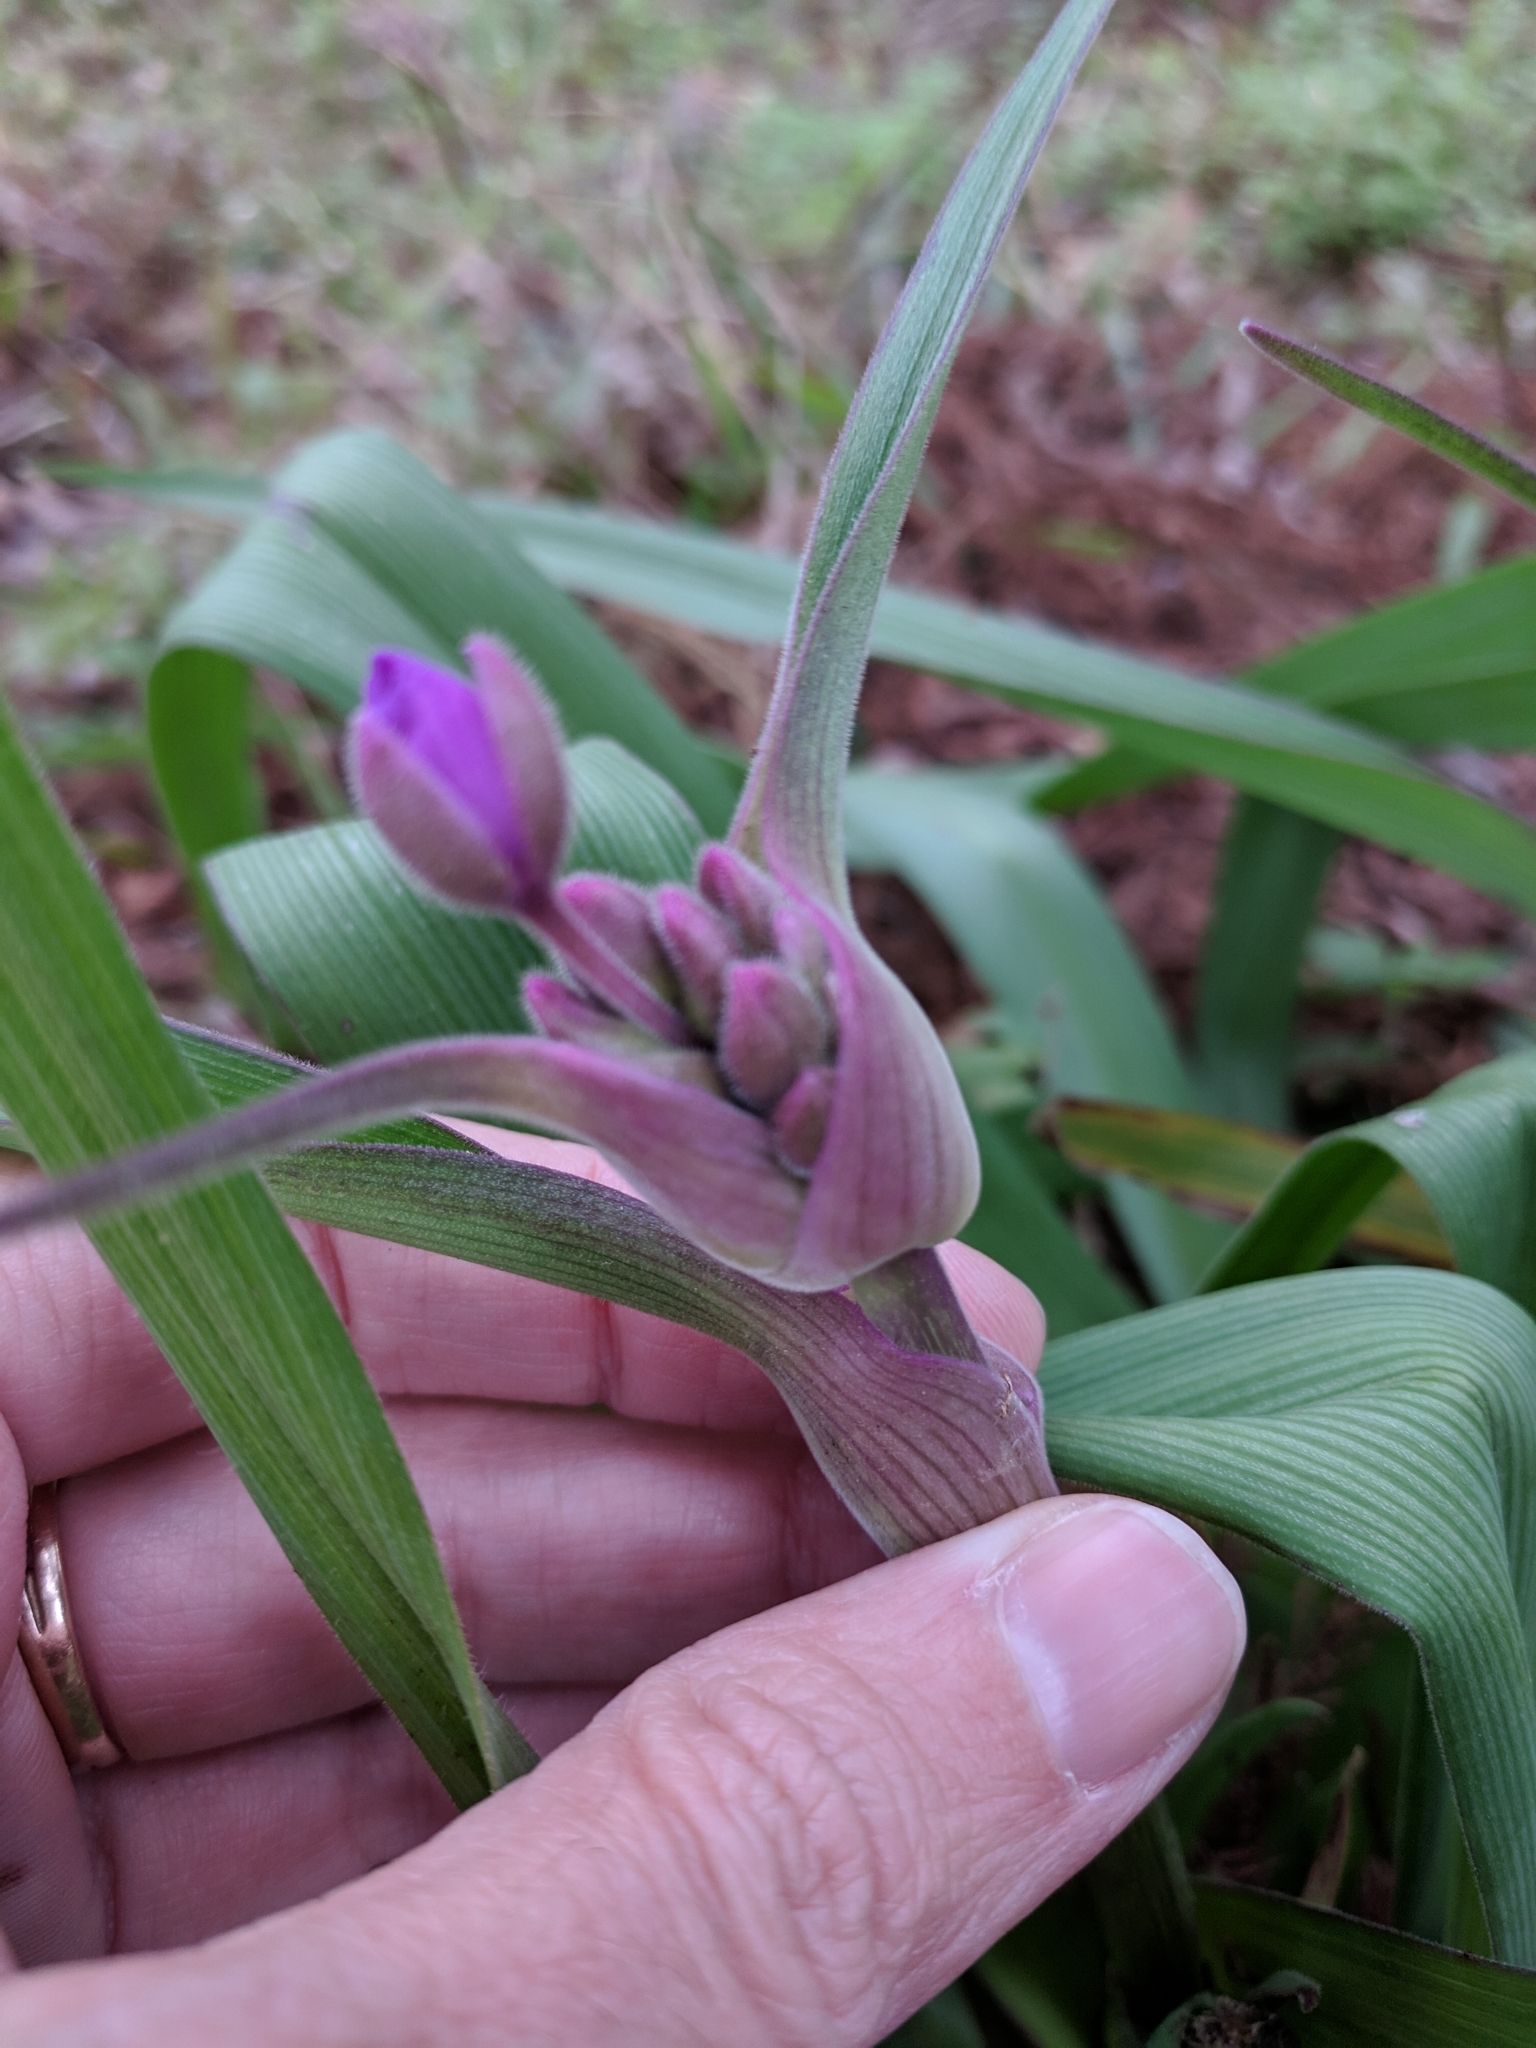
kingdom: Plantae
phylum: Tracheophyta
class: Liliopsida
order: Commelinales
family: Commelinaceae
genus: Tradescantia
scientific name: Tradescantia gigantea
